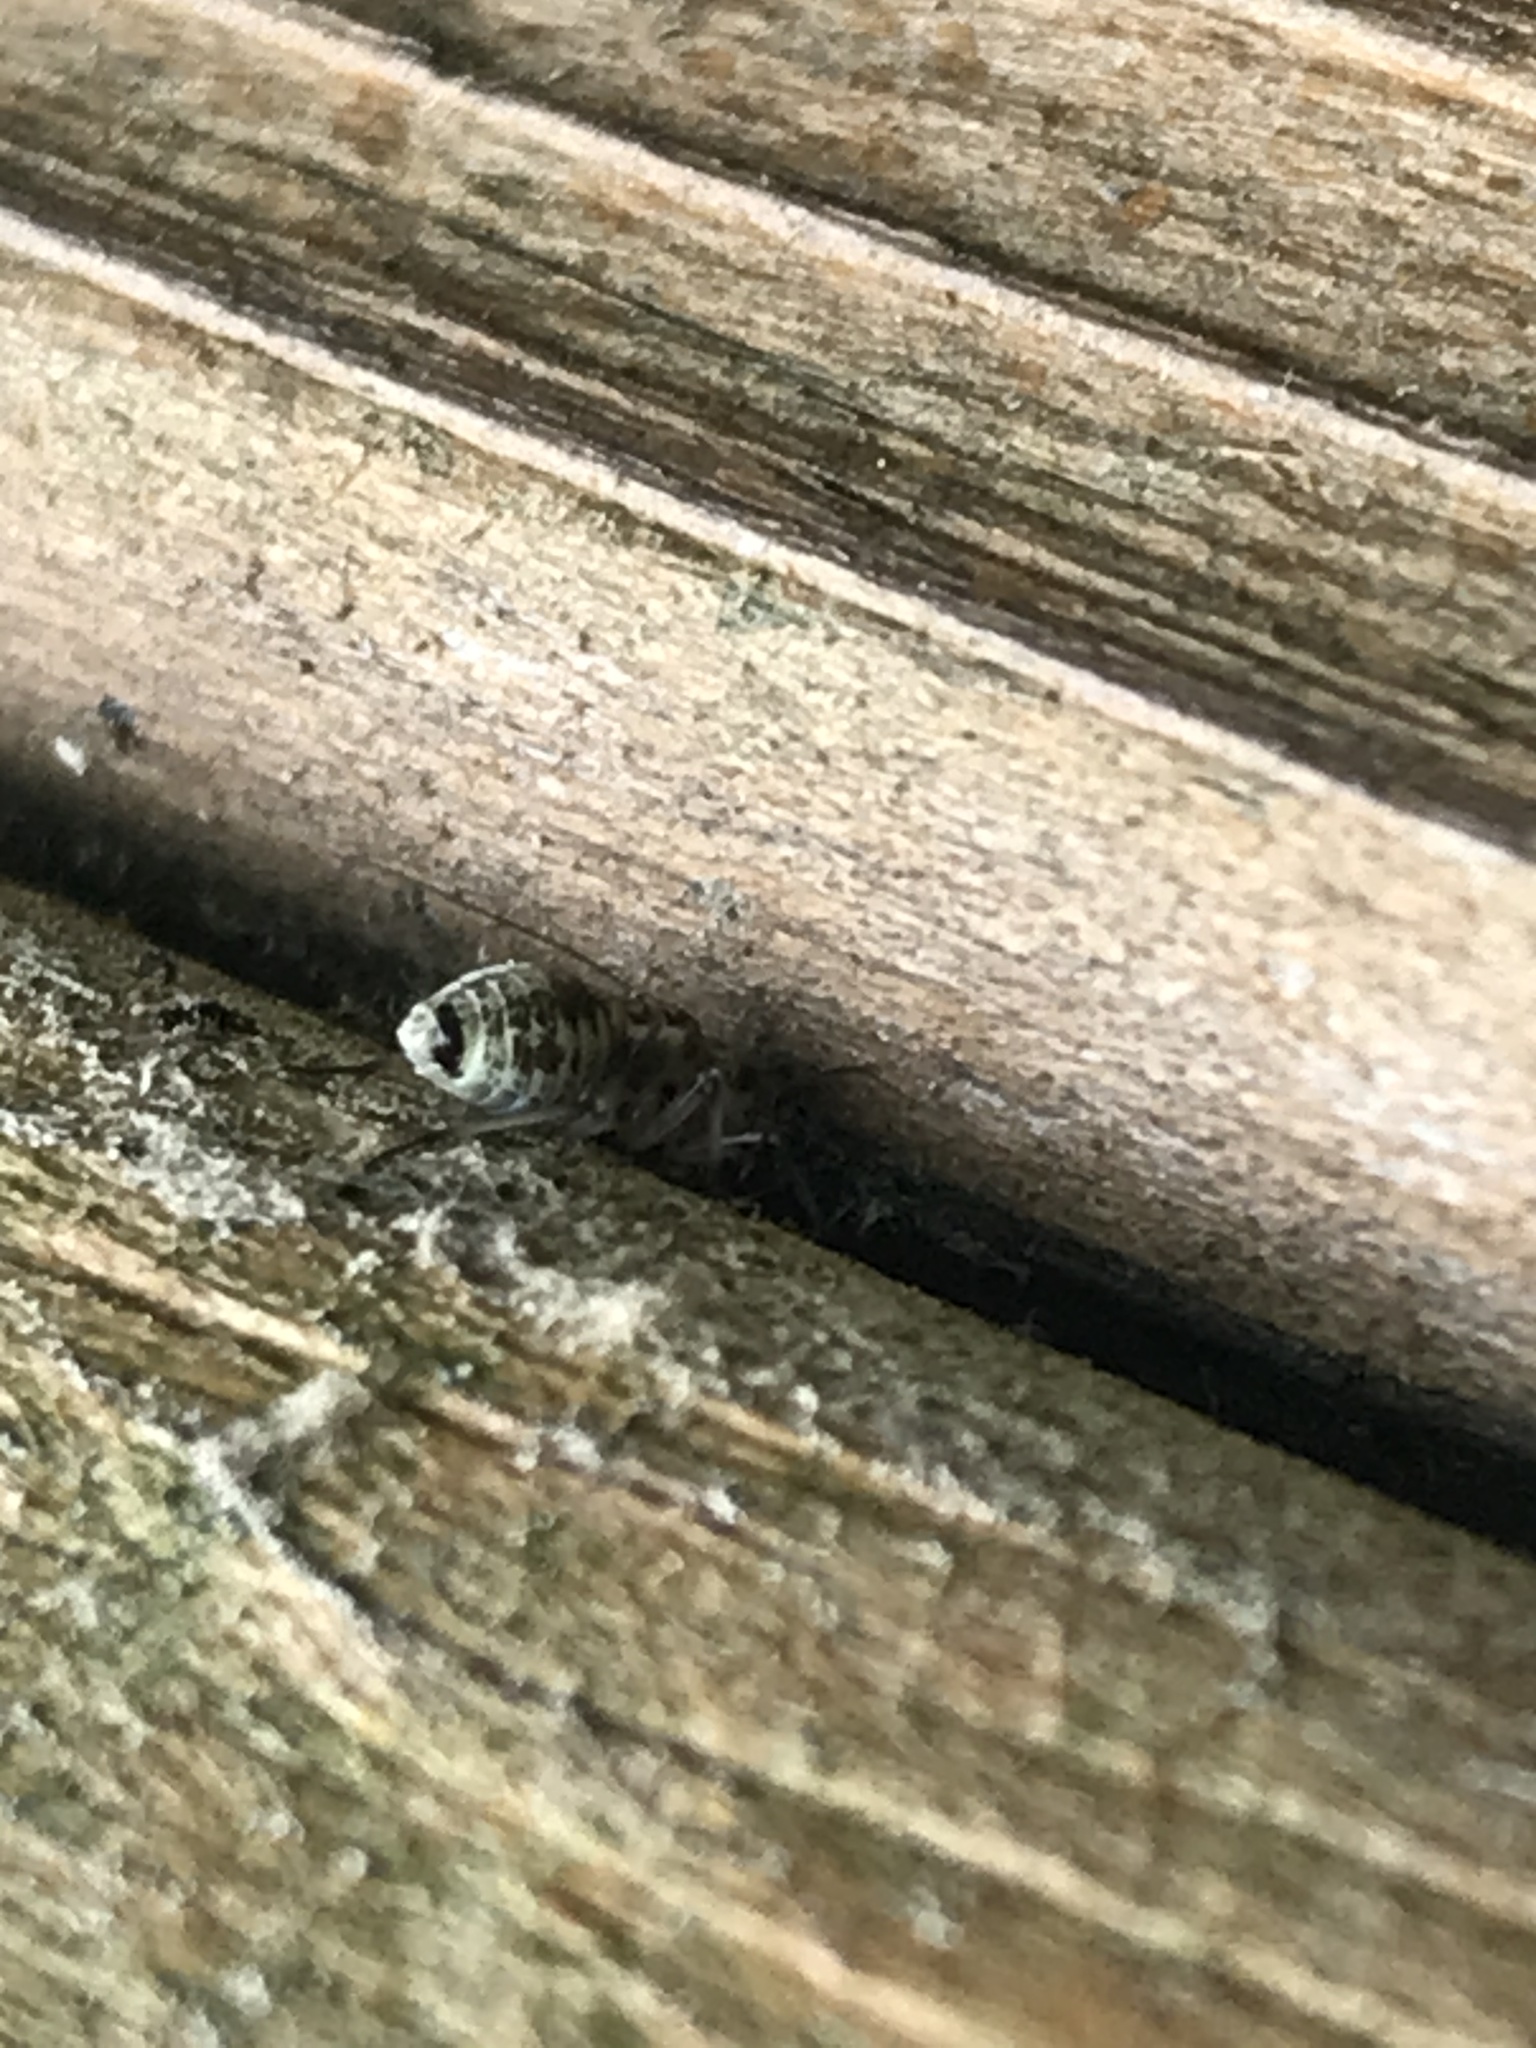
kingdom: Animalia
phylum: Arthropoda
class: Insecta
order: Psocodea
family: Psocidae
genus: Metylophorus
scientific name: Metylophorus novaescotiae
